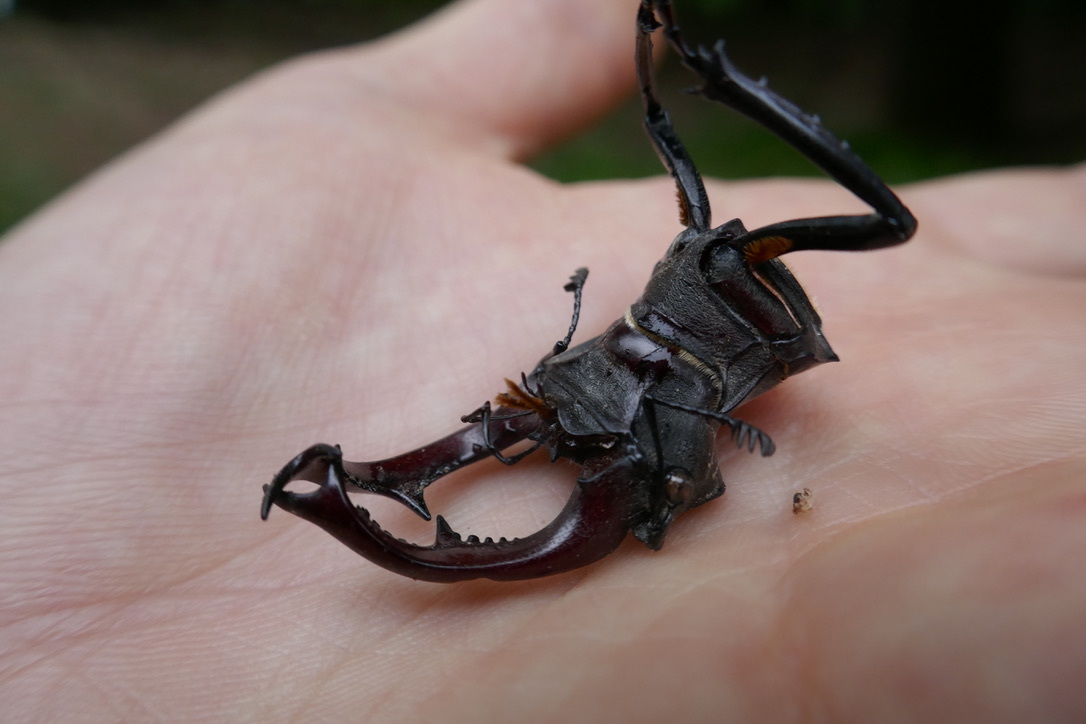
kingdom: Animalia
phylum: Arthropoda
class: Insecta
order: Coleoptera
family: Lucanidae
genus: Lucanus
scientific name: Lucanus cervus
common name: Stag beetle
